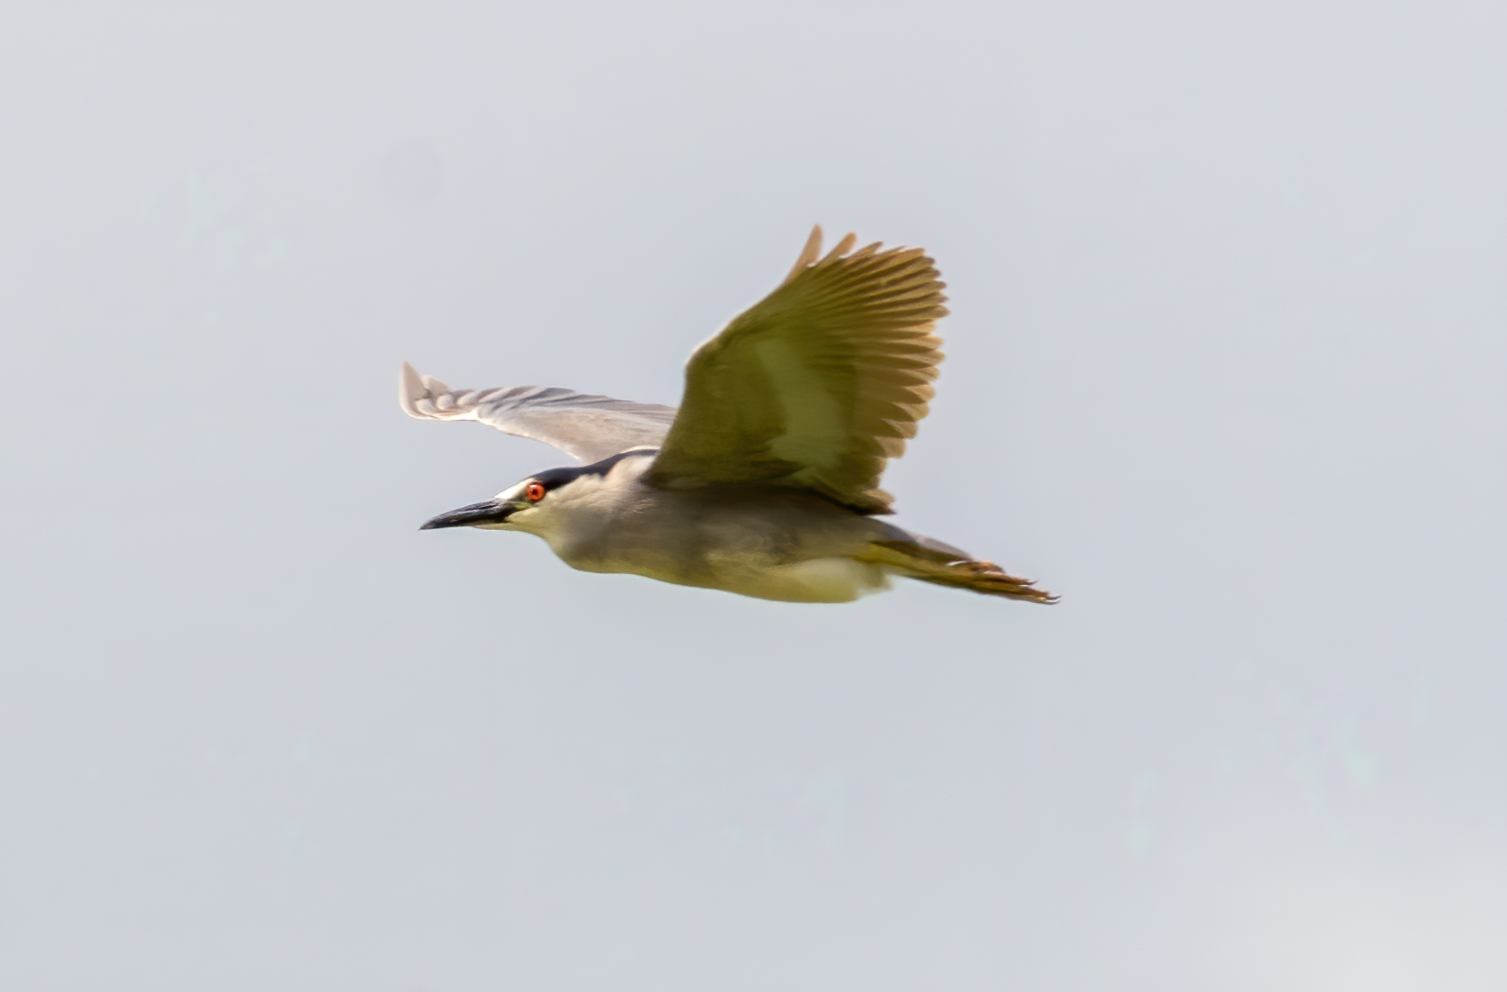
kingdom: Animalia
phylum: Chordata
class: Aves
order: Pelecaniformes
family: Ardeidae
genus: Nycticorax
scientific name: Nycticorax nycticorax
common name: Black-crowned night heron
